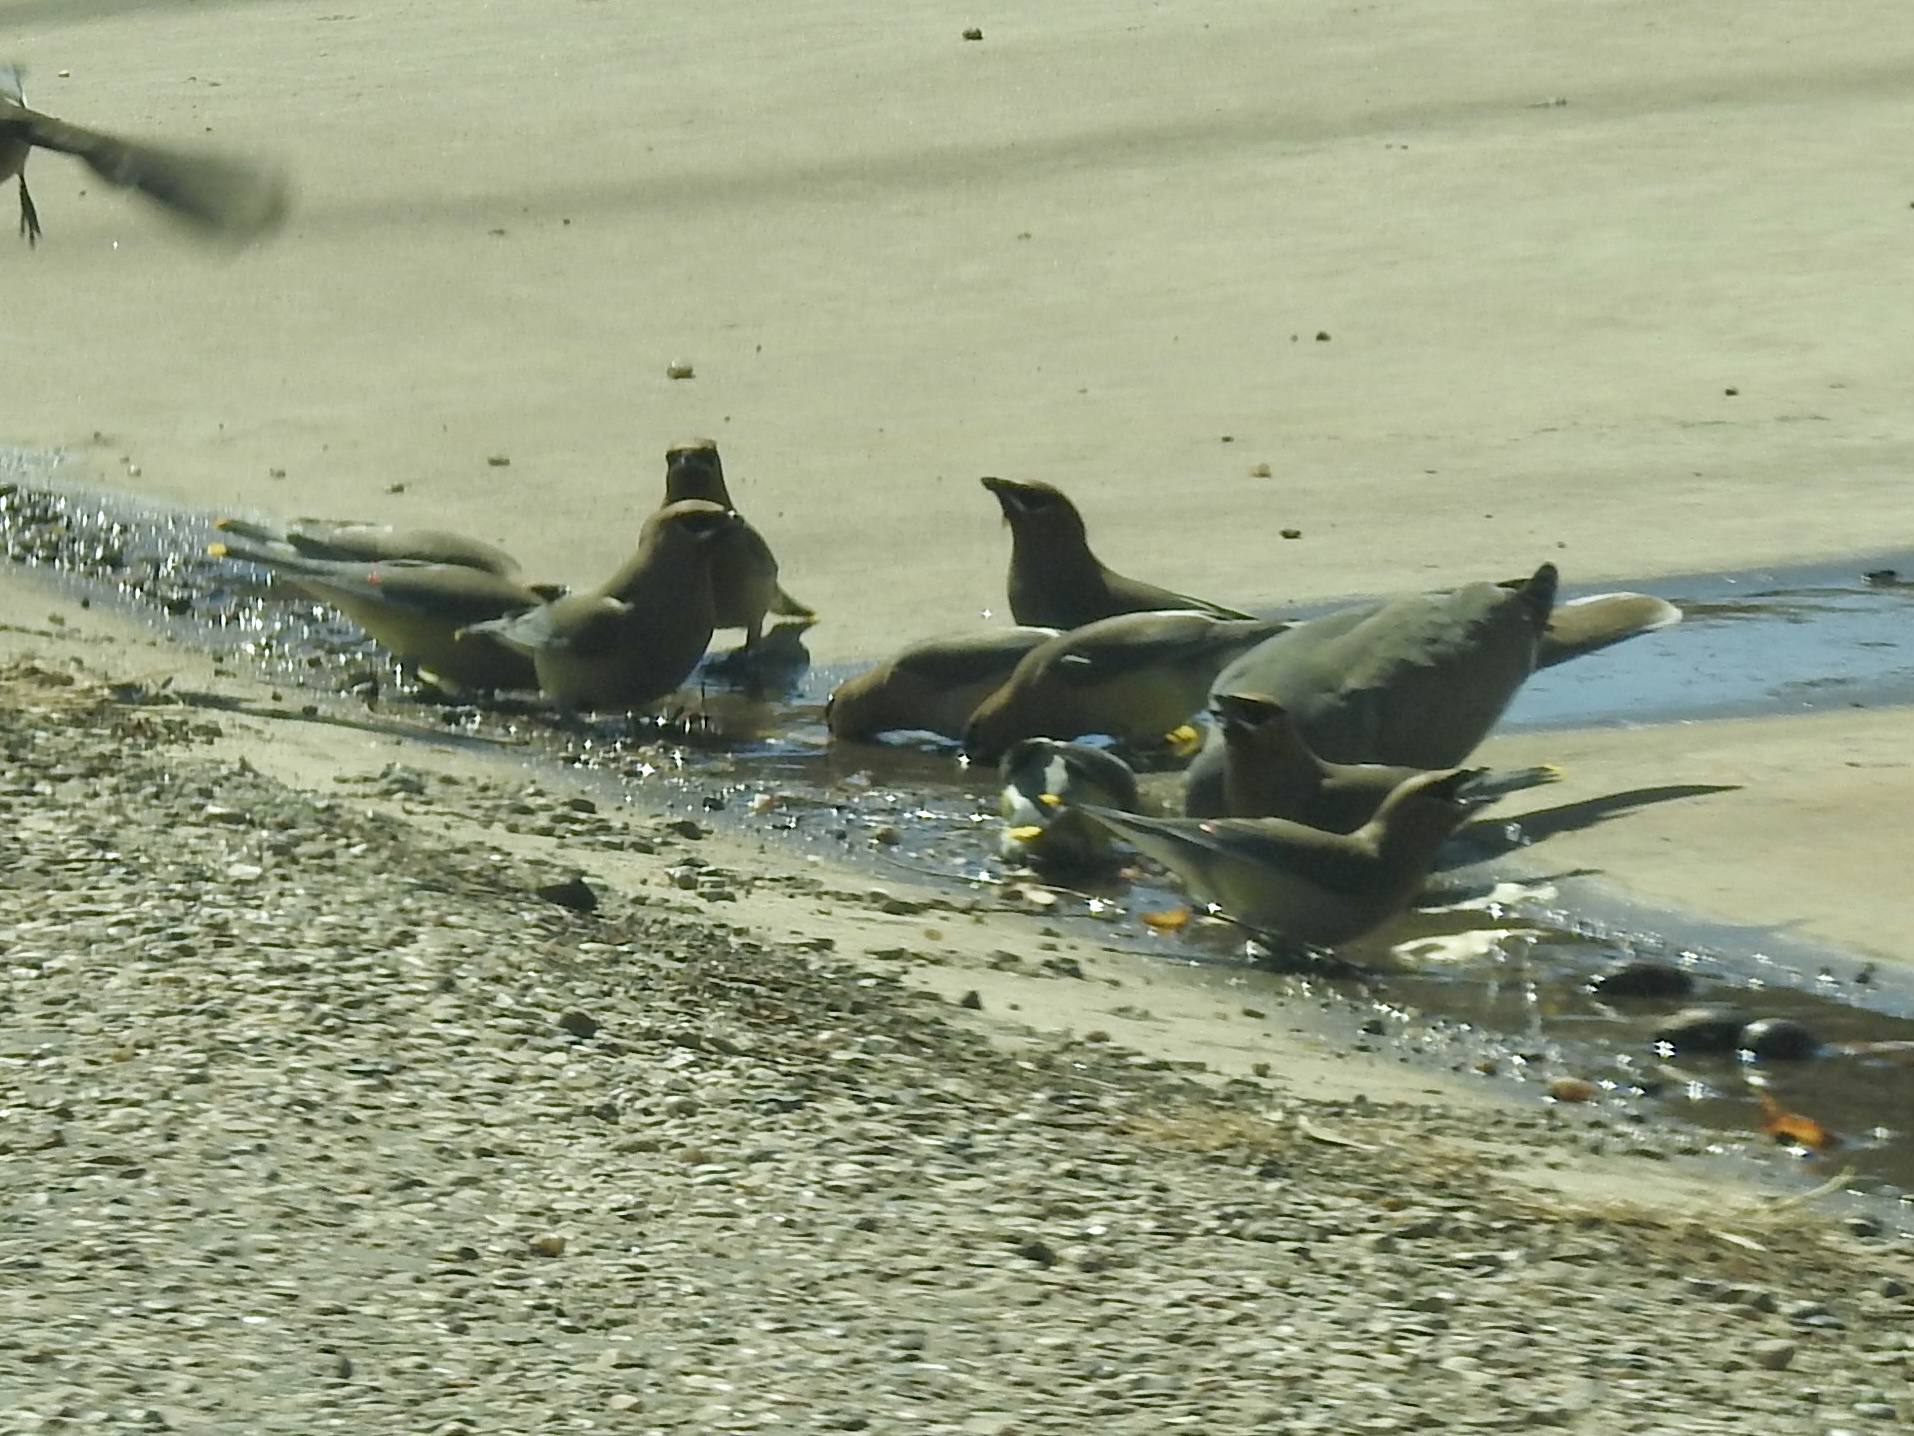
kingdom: Animalia
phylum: Chordata
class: Aves
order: Passeriformes
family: Bombycillidae
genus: Bombycilla
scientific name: Bombycilla cedrorum
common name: Cedar waxwing
